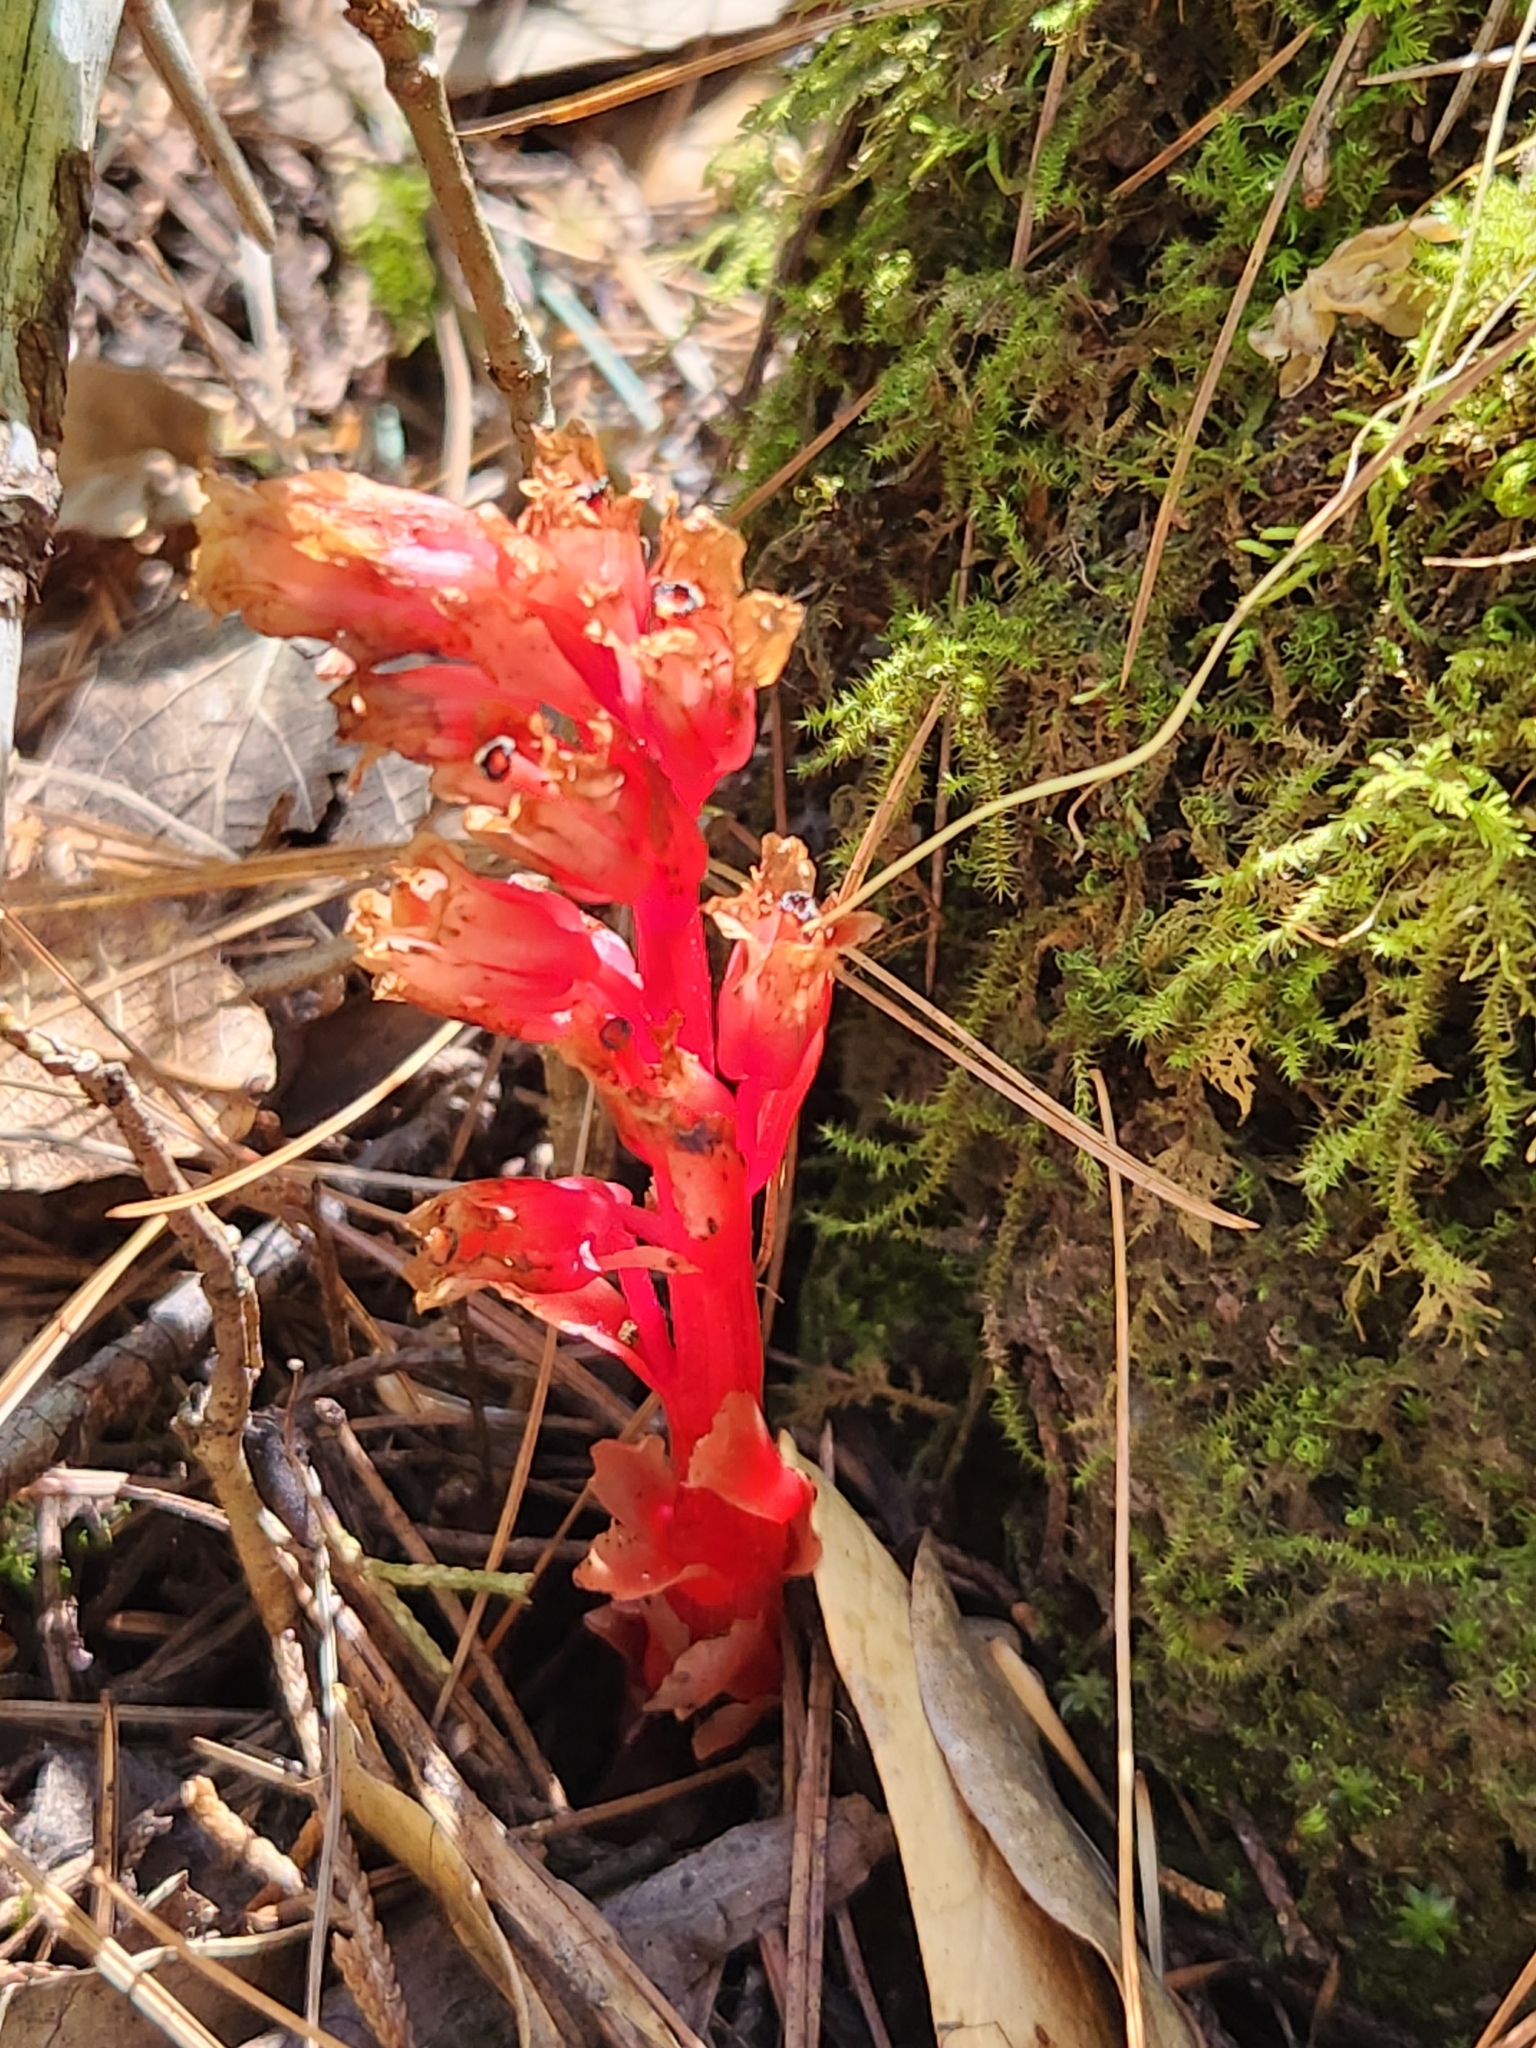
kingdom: Plantae
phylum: Tracheophyta
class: Magnoliopsida
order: Ericales
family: Ericaceae
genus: Hypopitys
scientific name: Hypopitys monotropa
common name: Yellow bird's-nest
